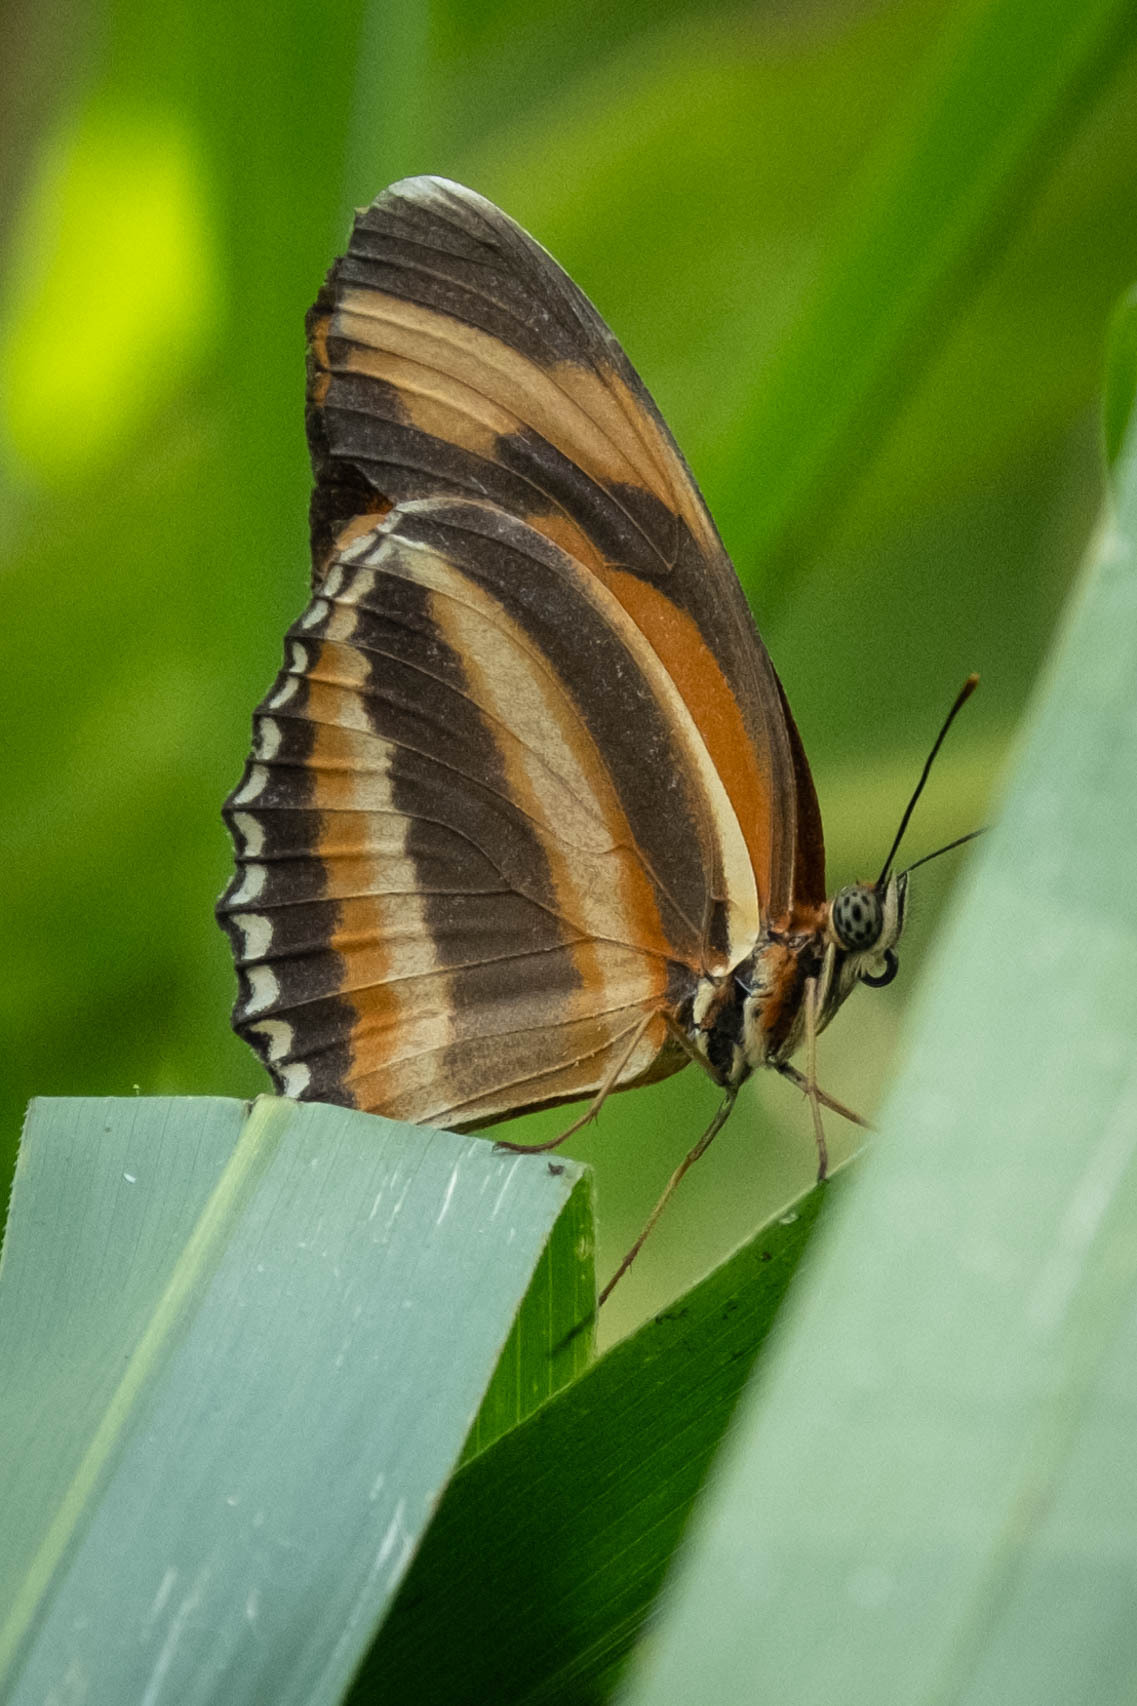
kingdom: Animalia
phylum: Arthropoda
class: Insecta
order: Lepidoptera
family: Nymphalidae
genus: Dryadula
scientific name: Dryadula phaetusa
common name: Banded orange heliconian
